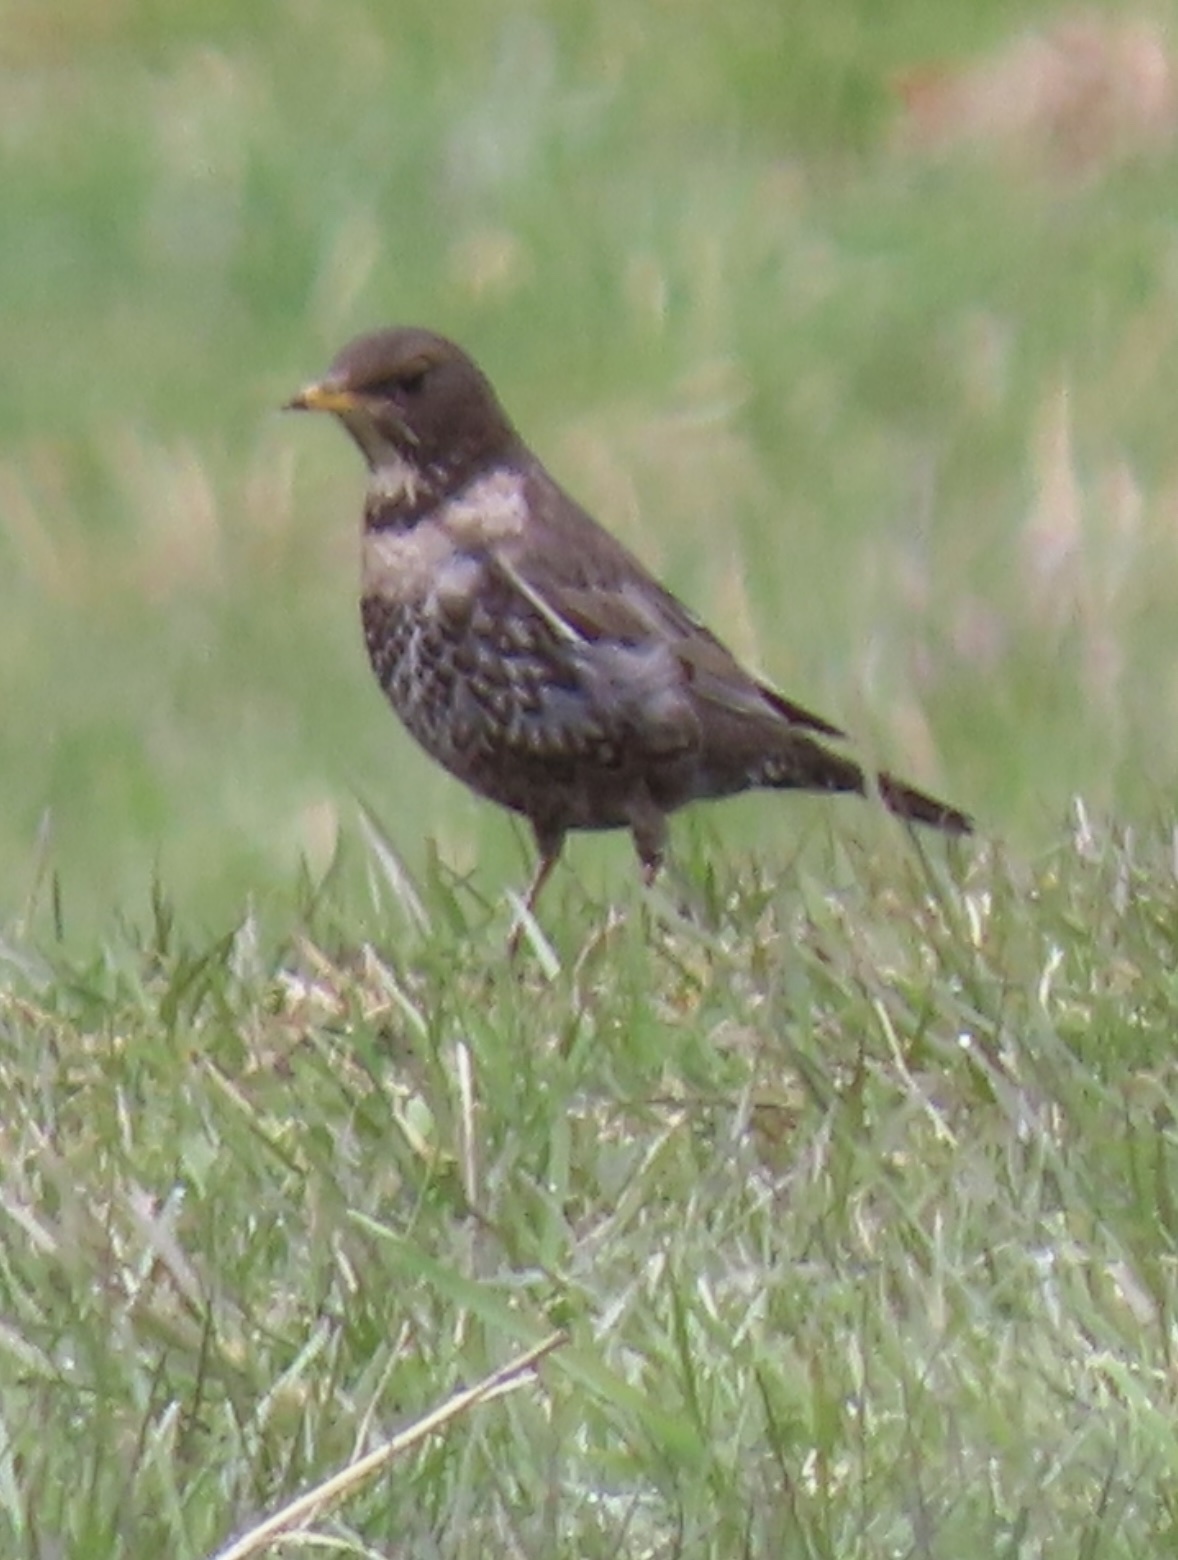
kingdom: Animalia
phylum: Chordata
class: Aves
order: Passeriformes
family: Turdidae
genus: Turdus
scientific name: Turdus torquatus
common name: Ring ouzel
